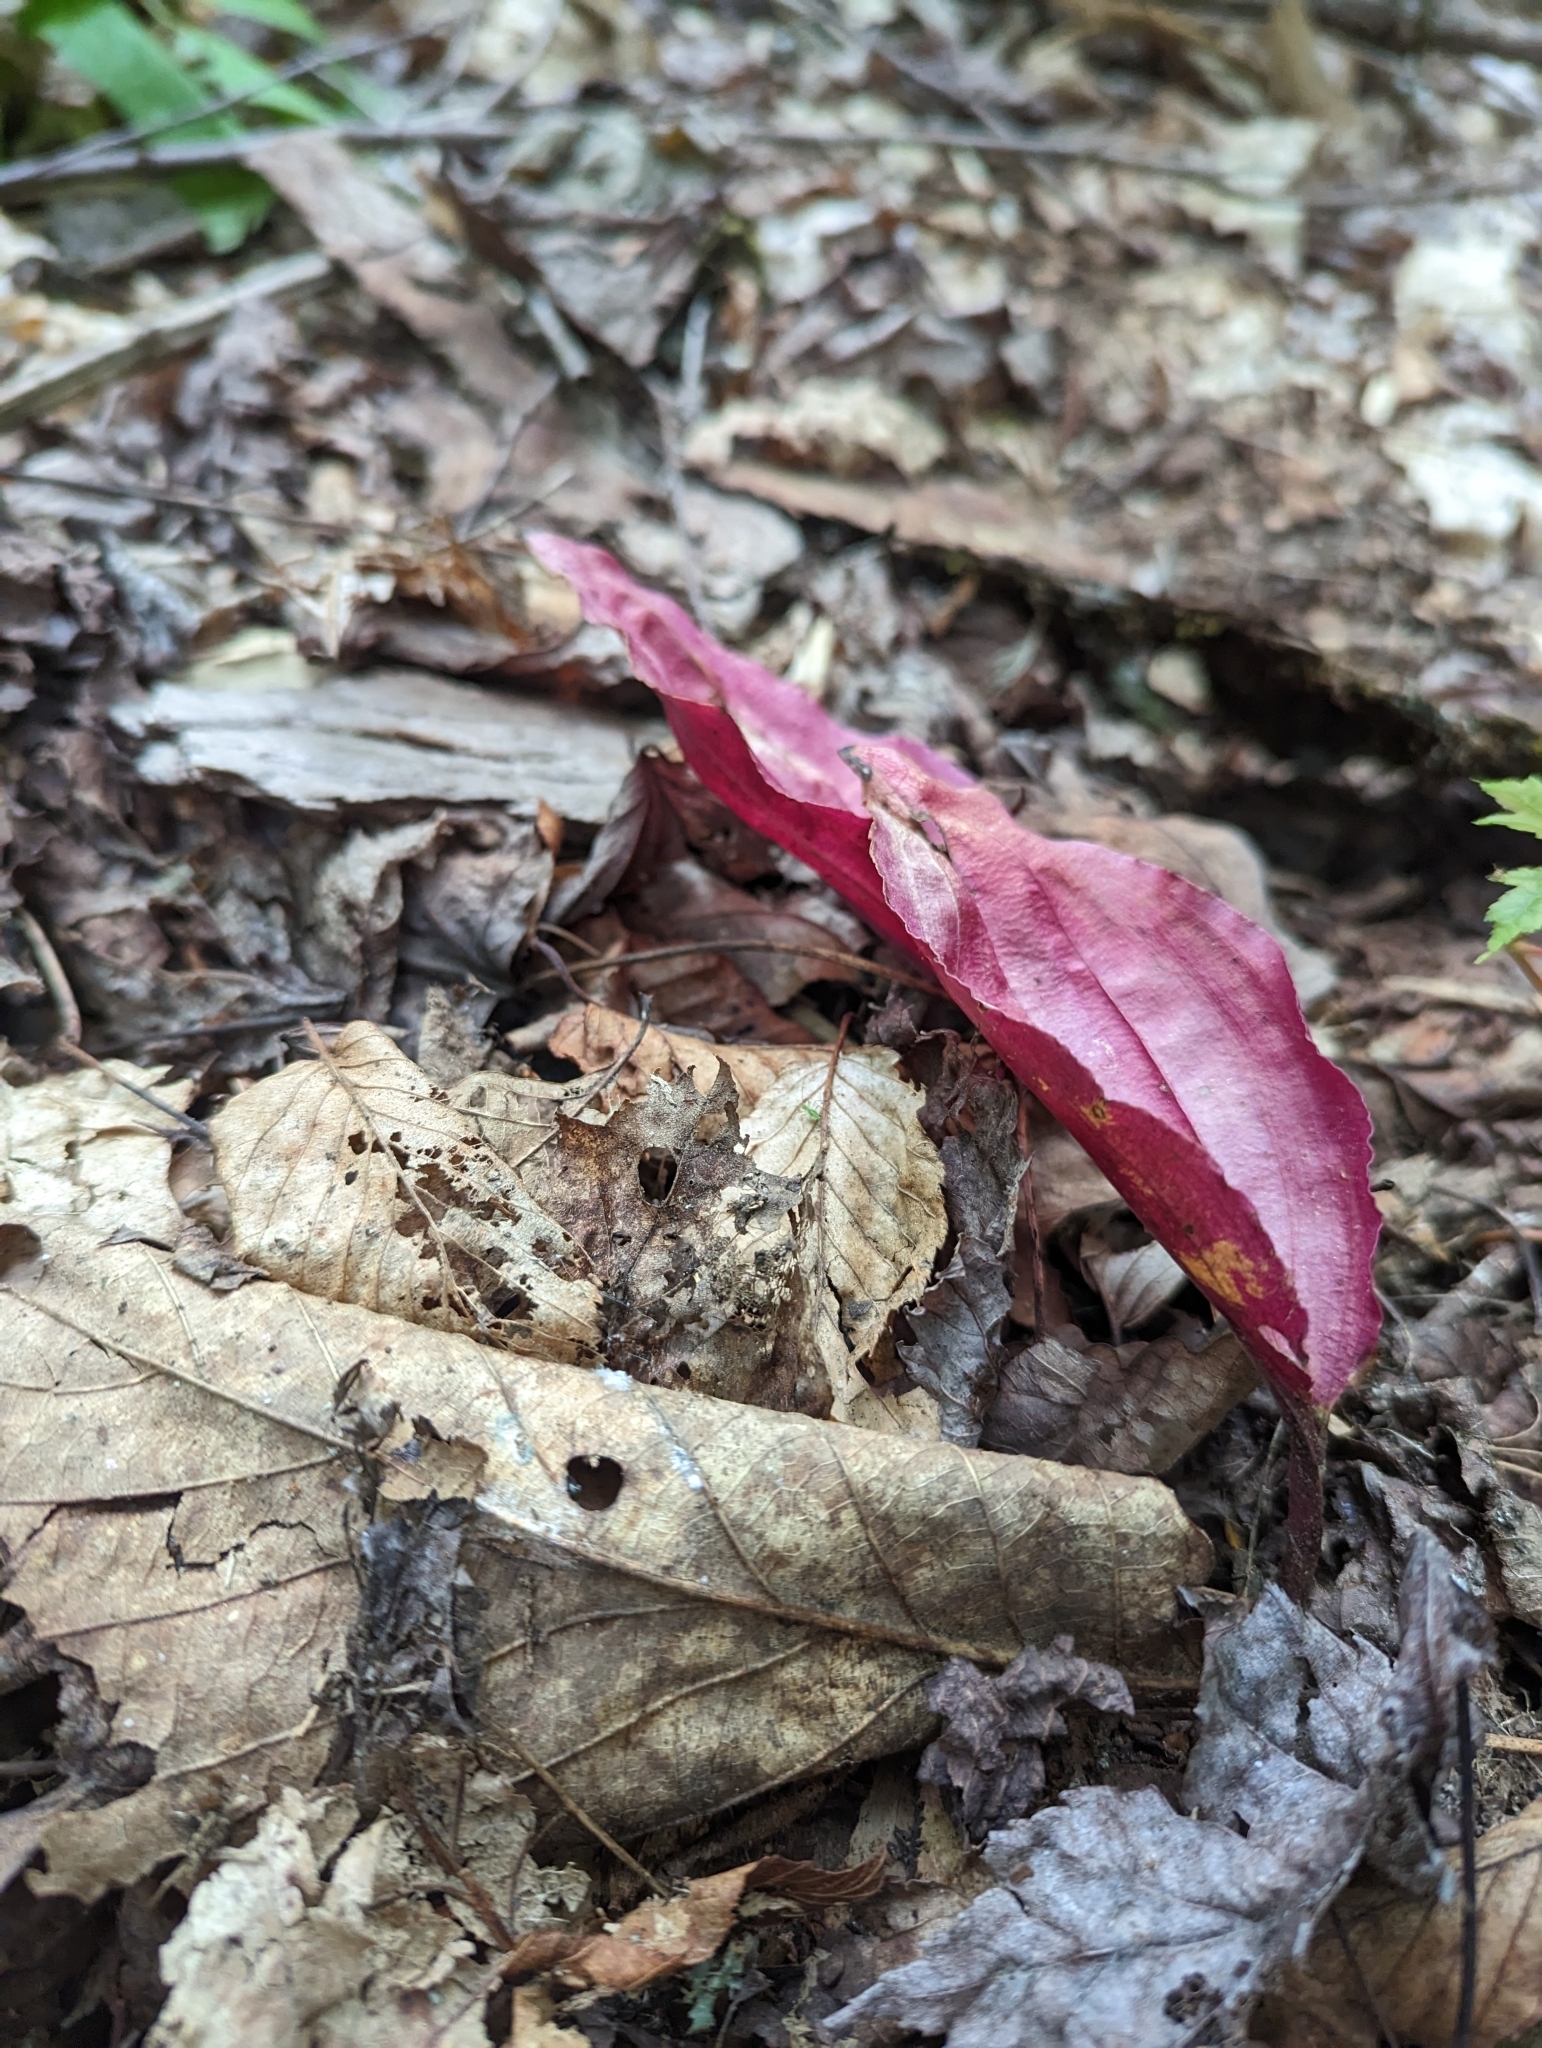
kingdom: Plantae
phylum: Tracheophyta
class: Liliopsida
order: Asparagales
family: Orchidaceae
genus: Tipularia
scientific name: Tipularia discolor
